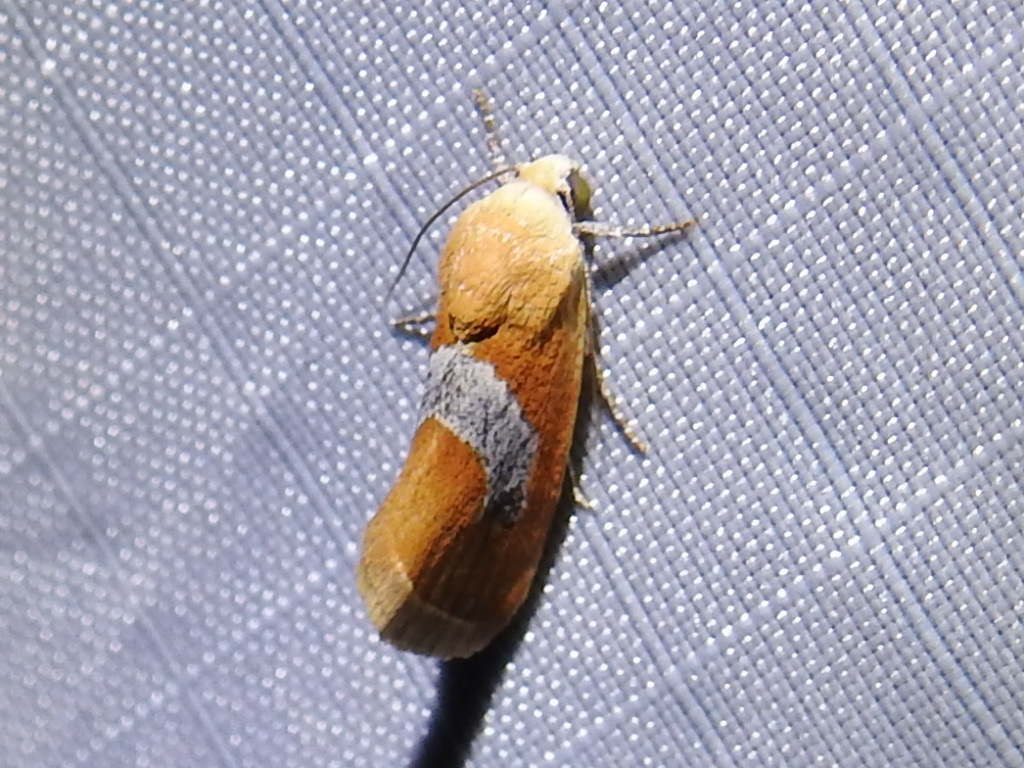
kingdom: Animalia
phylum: Arthropoda
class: Insecta
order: Lepidoptera
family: Noctuidae
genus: Ponometia
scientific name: Ponometia venustula
